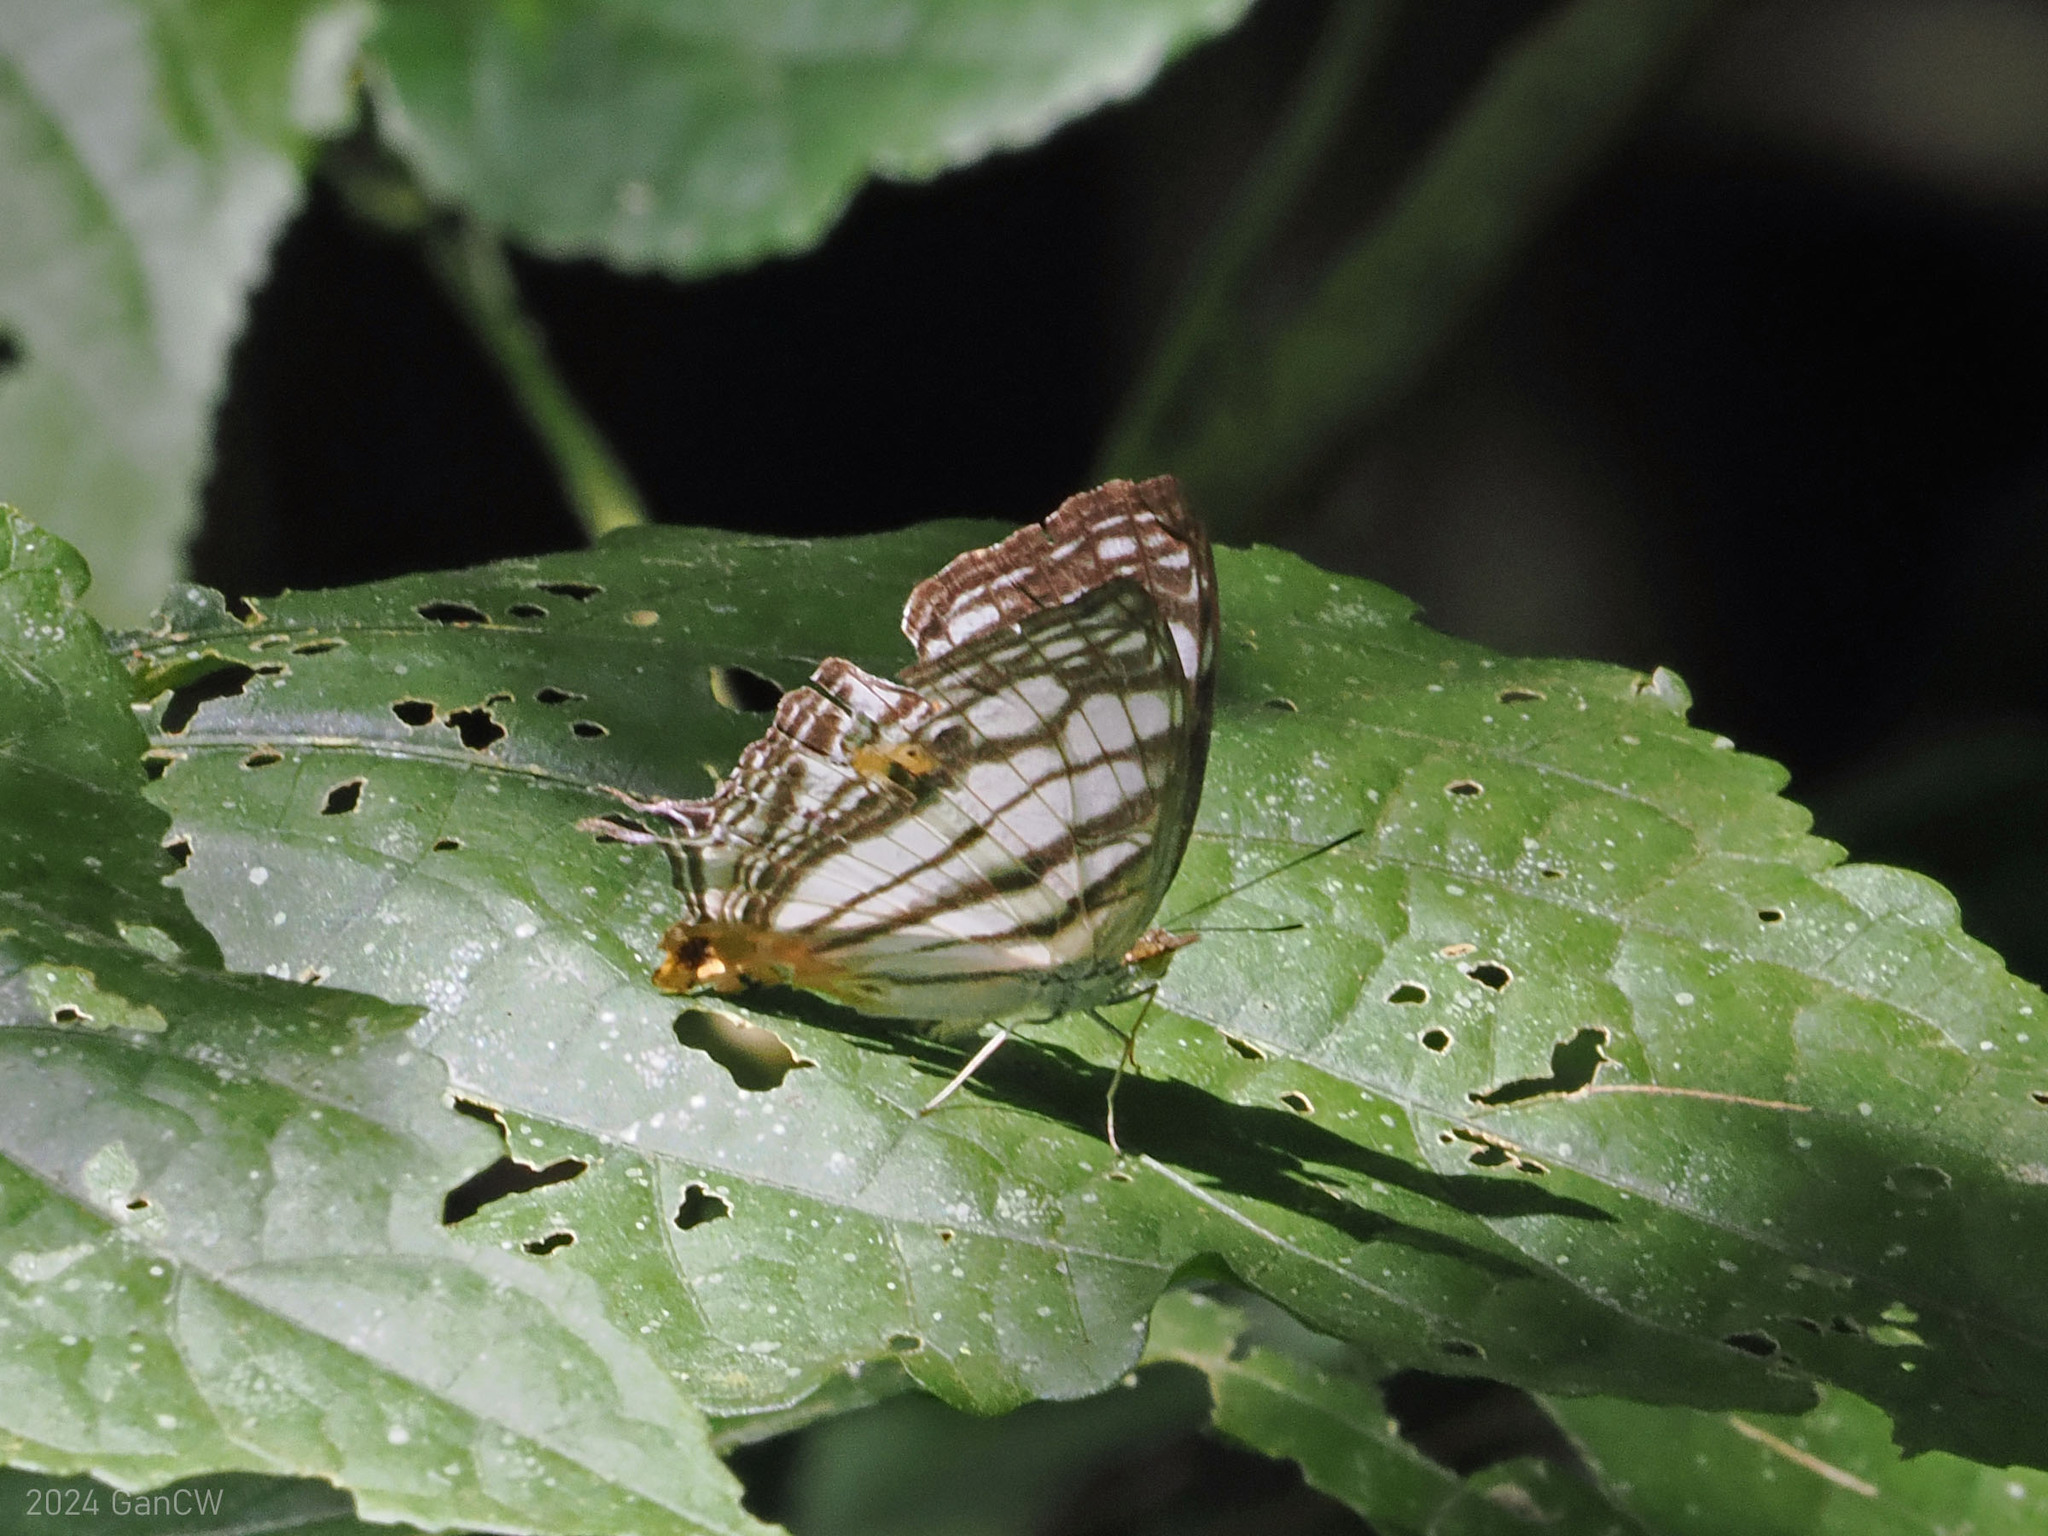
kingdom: Animalia
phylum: Arthropoda
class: Insecta
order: Lepidoptera
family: Nymphalidae
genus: Cyrestis
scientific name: Cyrestis maenalis
